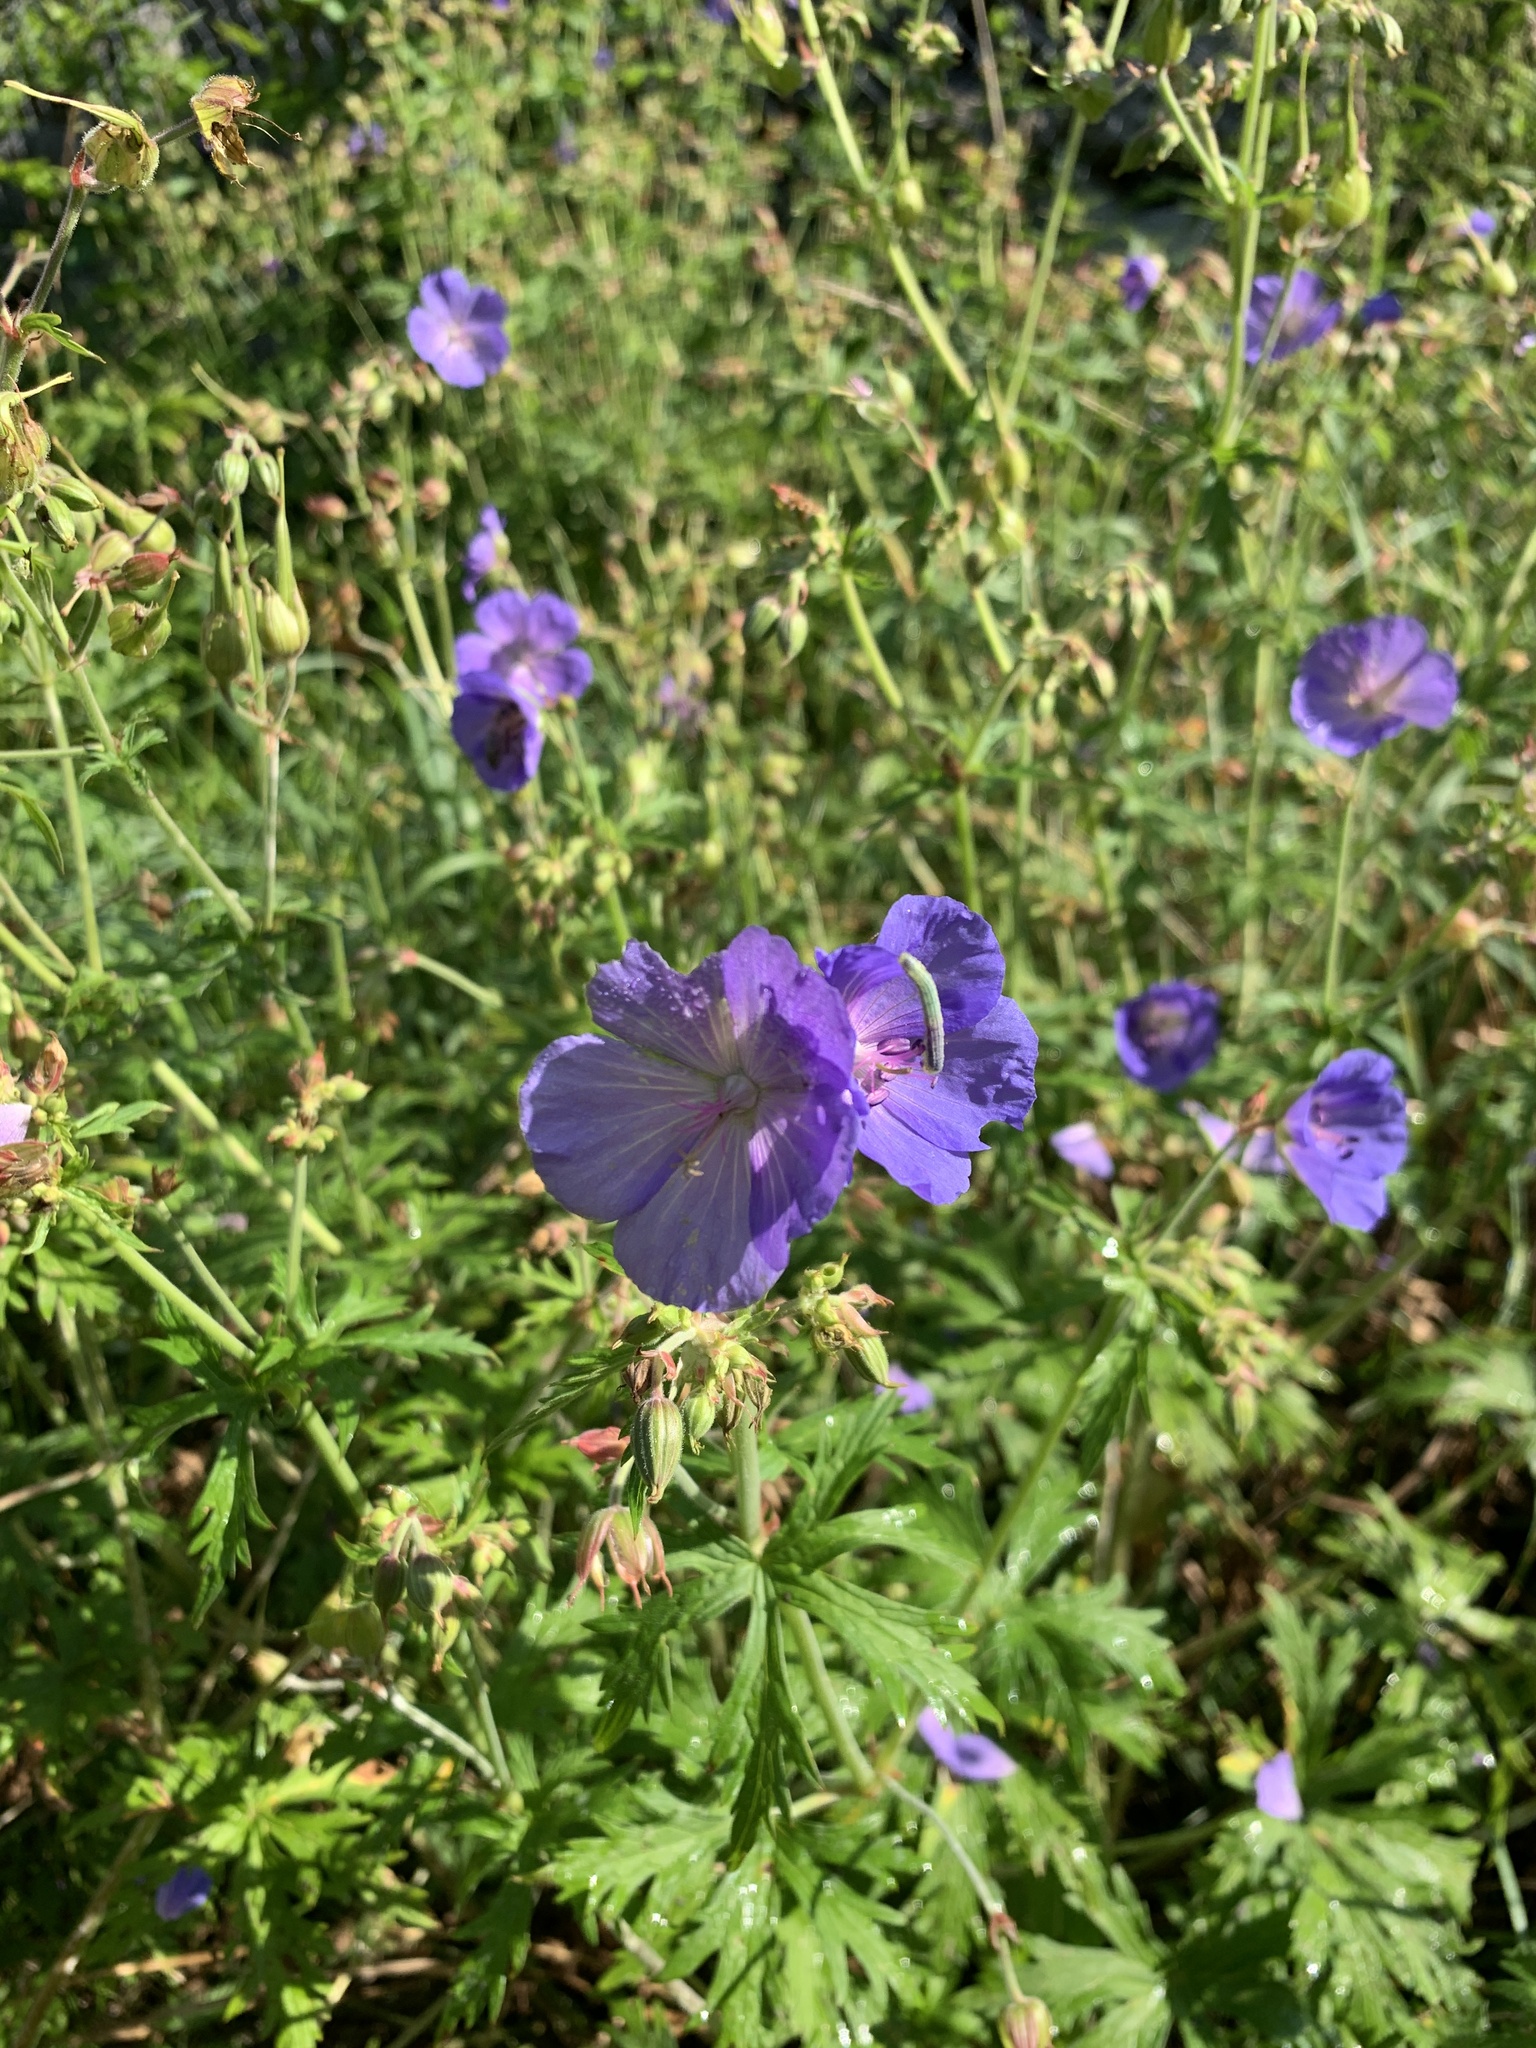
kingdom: Plantae
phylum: Tracheophyta
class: Magnoliopsida
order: Geraniales
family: Geraniaceae
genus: Geranium
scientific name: Geranium pratense
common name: Meadow crane's-bill
